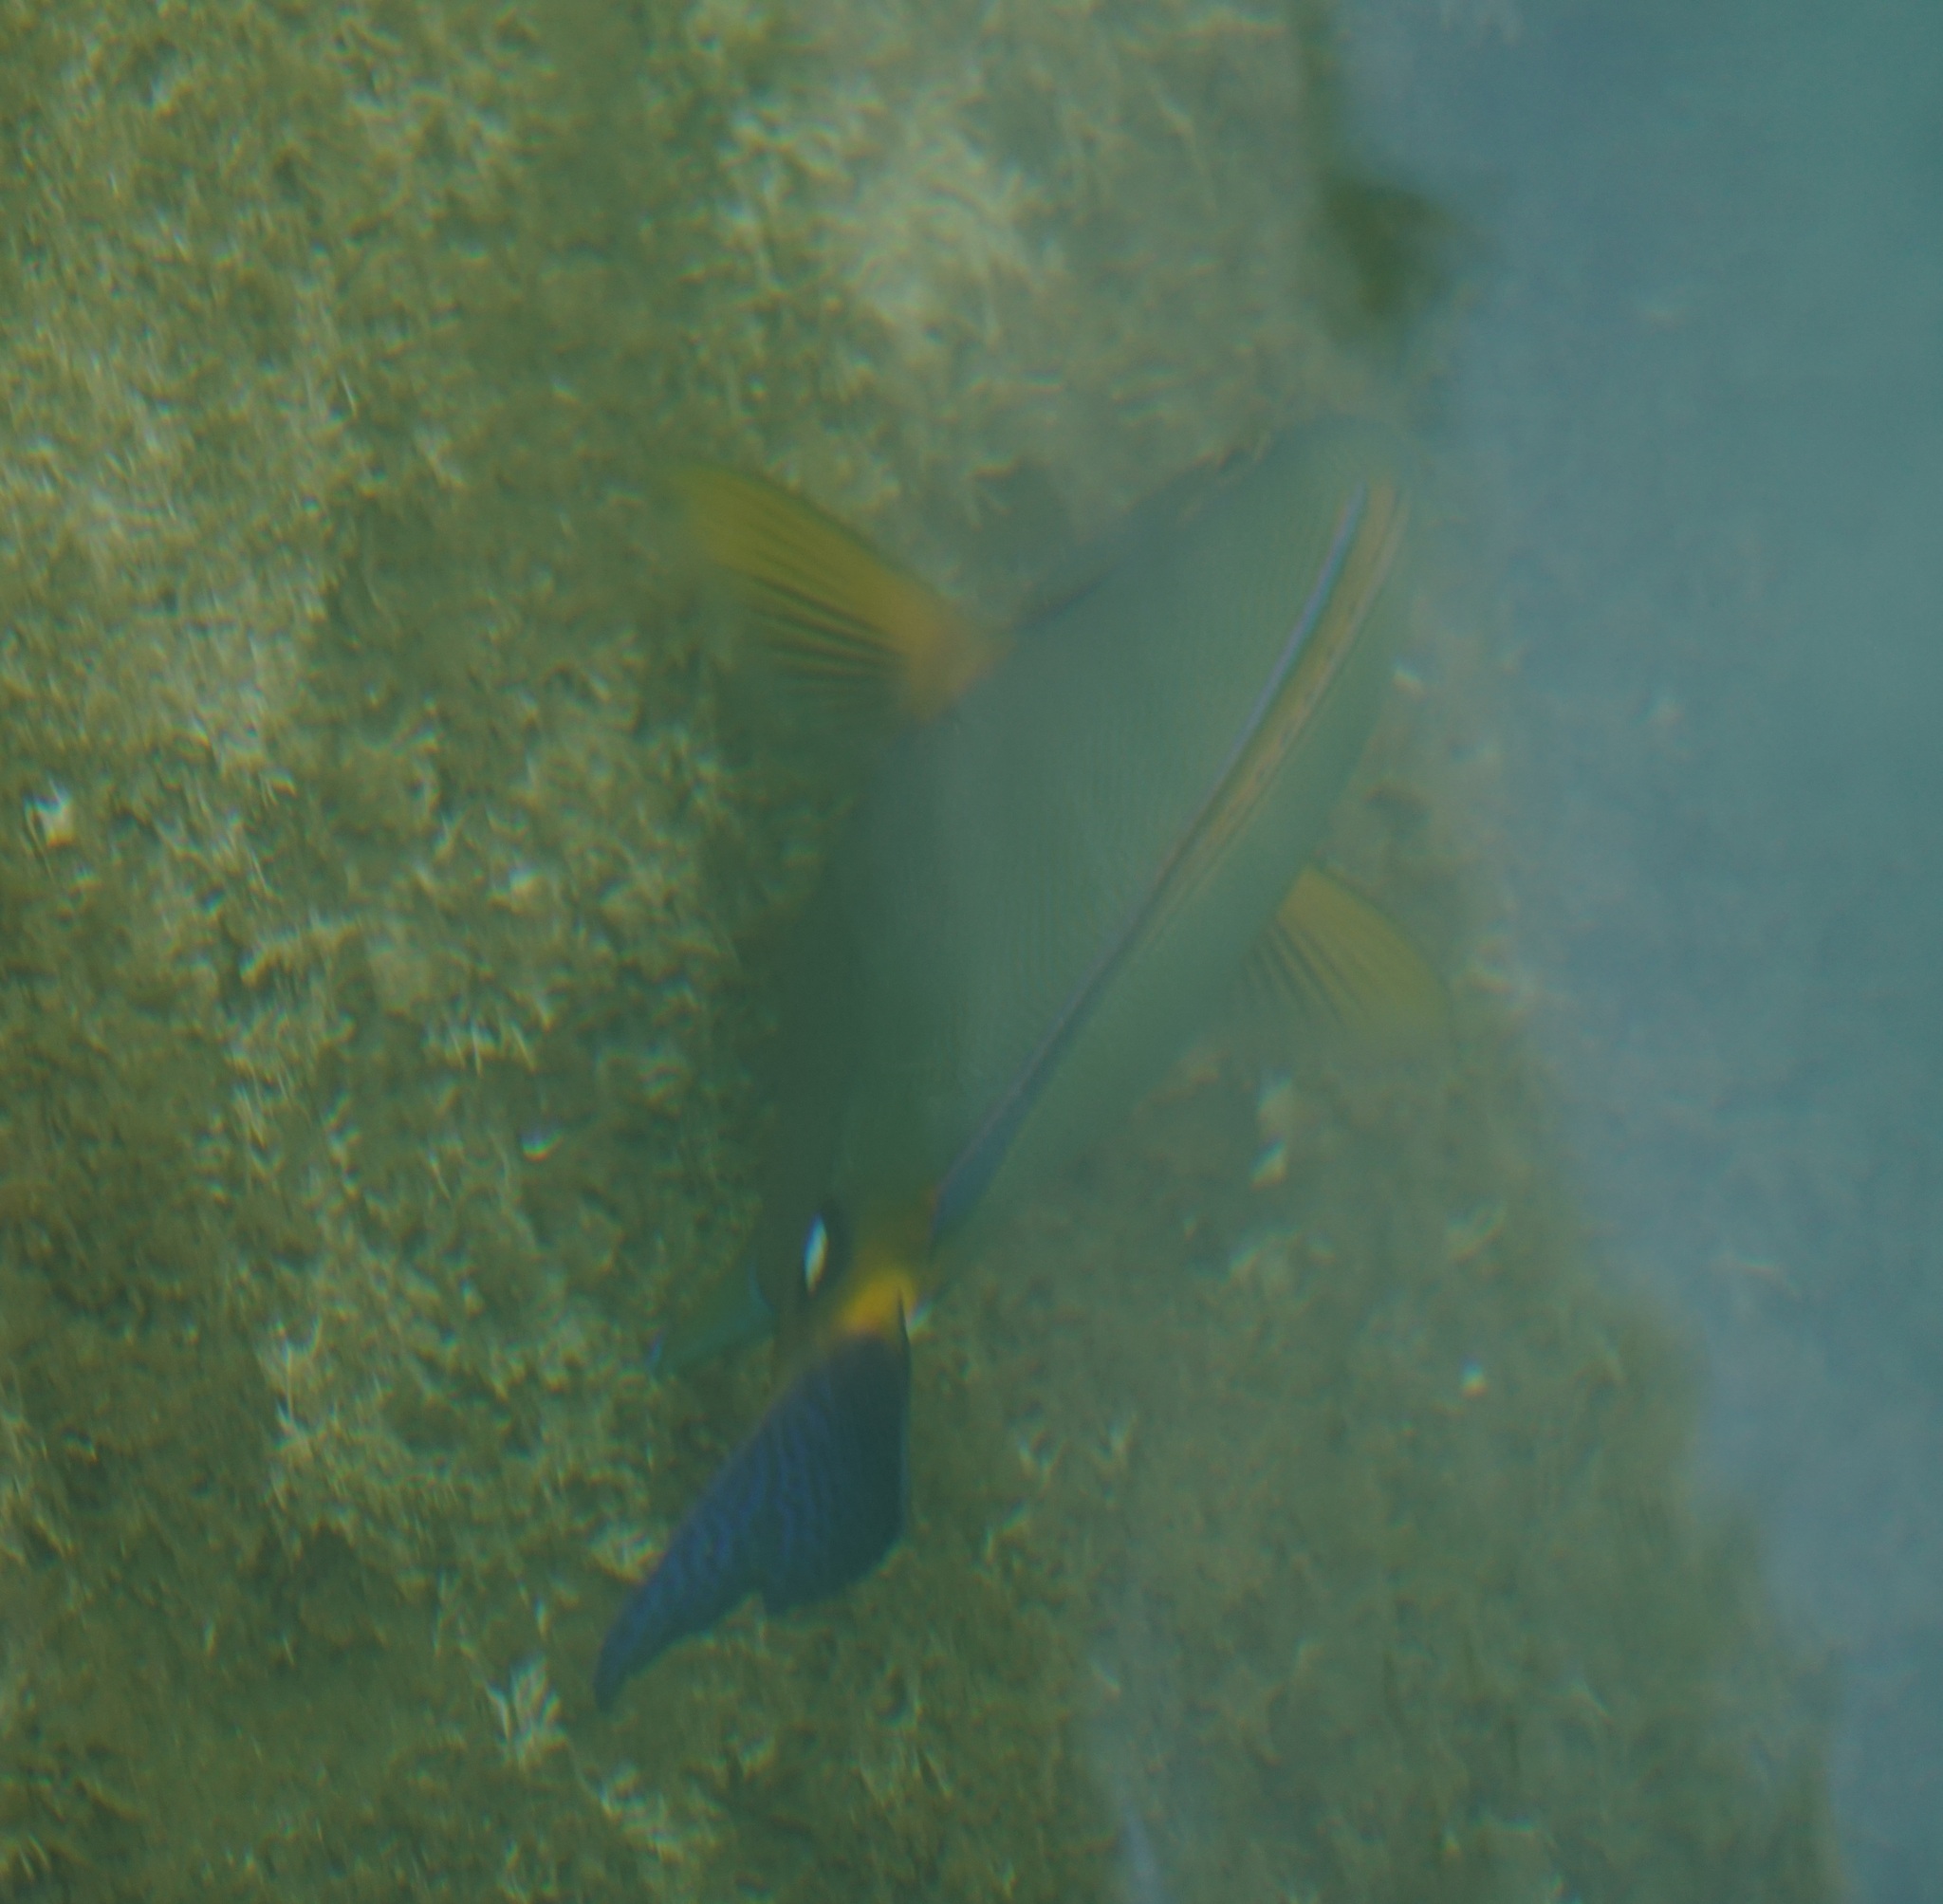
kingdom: Animalia
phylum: Chordata
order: Perciformes
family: Acanthuridae
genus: Acanthurus
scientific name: Acanthurus dussumieri
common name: Dussumier's surgeonfish
